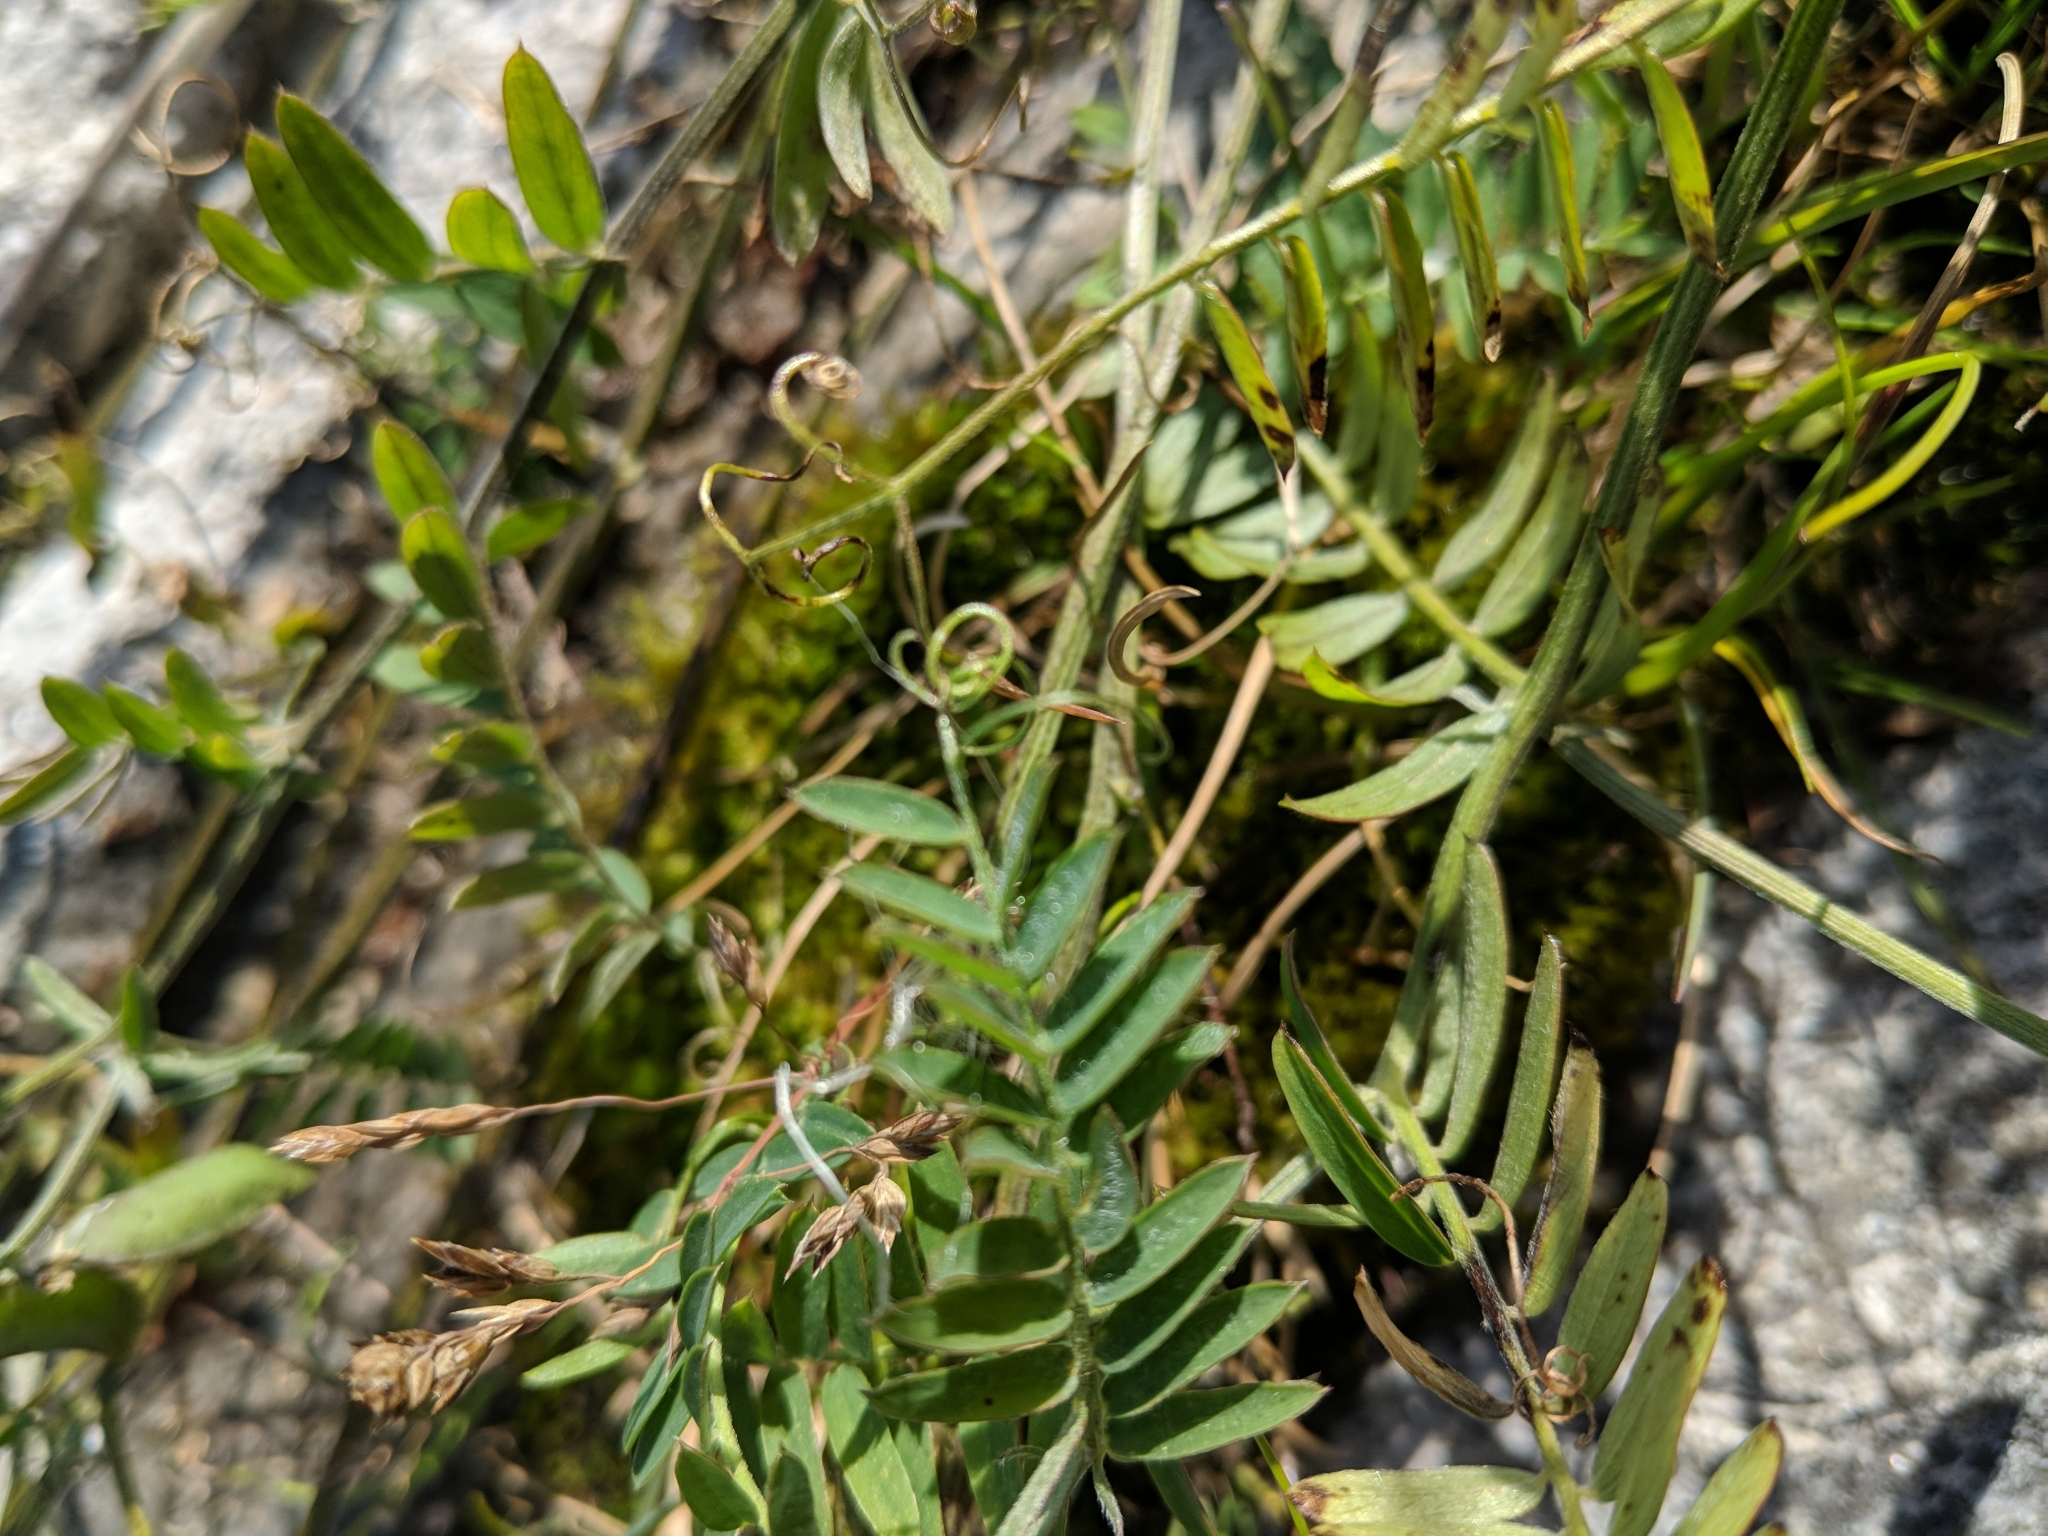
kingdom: Plantae
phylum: Tracheophyta
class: Magnoliopsida
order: Fabales
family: Fabaceae
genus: Vicia
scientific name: Vicia cracca
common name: Bird vetch
